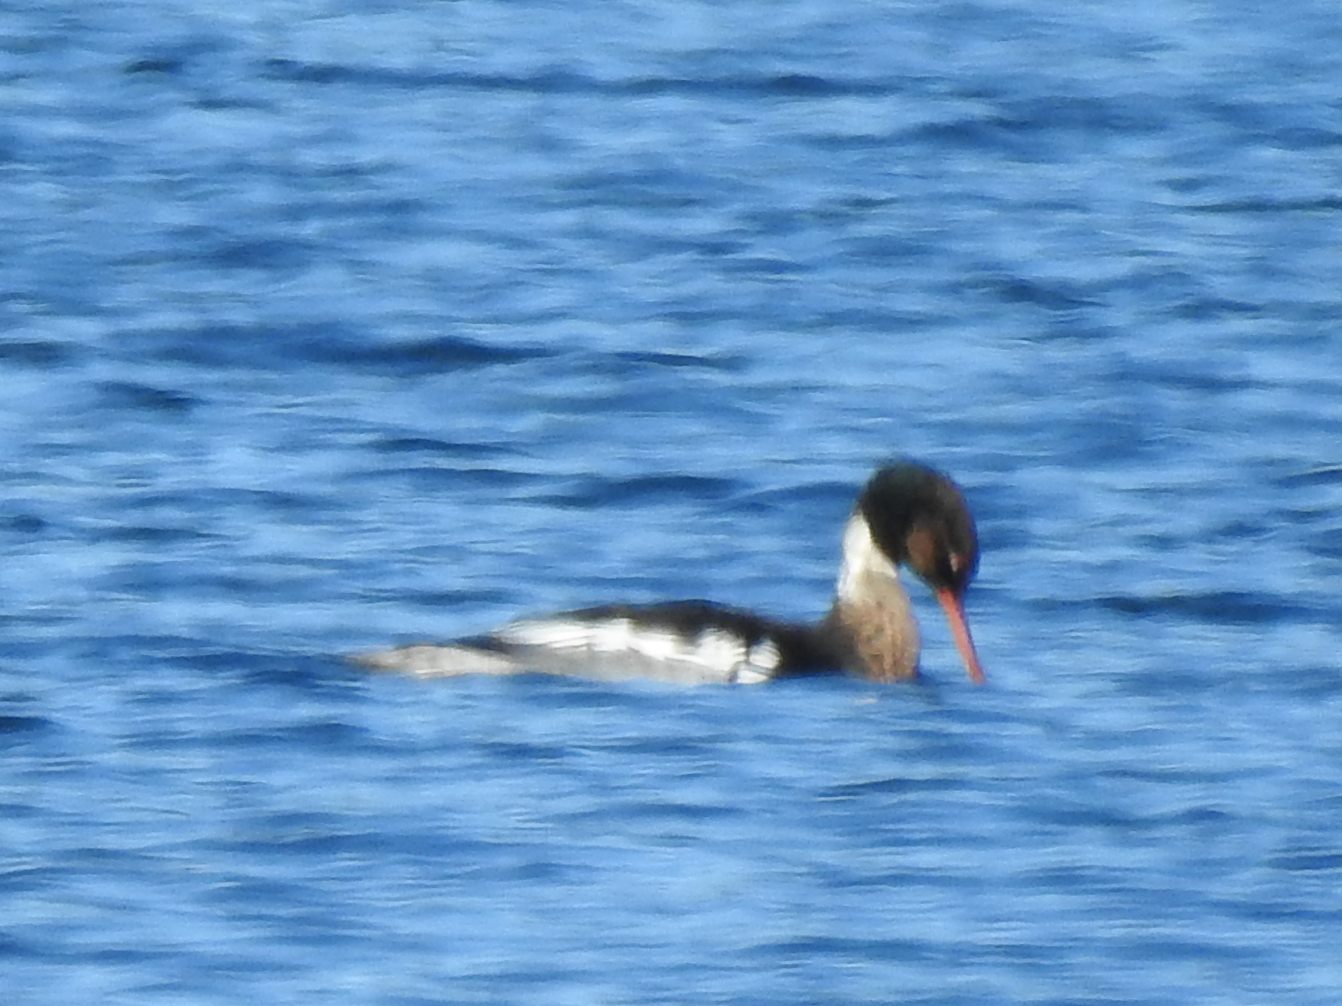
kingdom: Animalia
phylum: Chordata
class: Aves
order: Anseriformes
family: Anatidae
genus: Mergus
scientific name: Mergus serrator
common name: Red-breasted merganser
